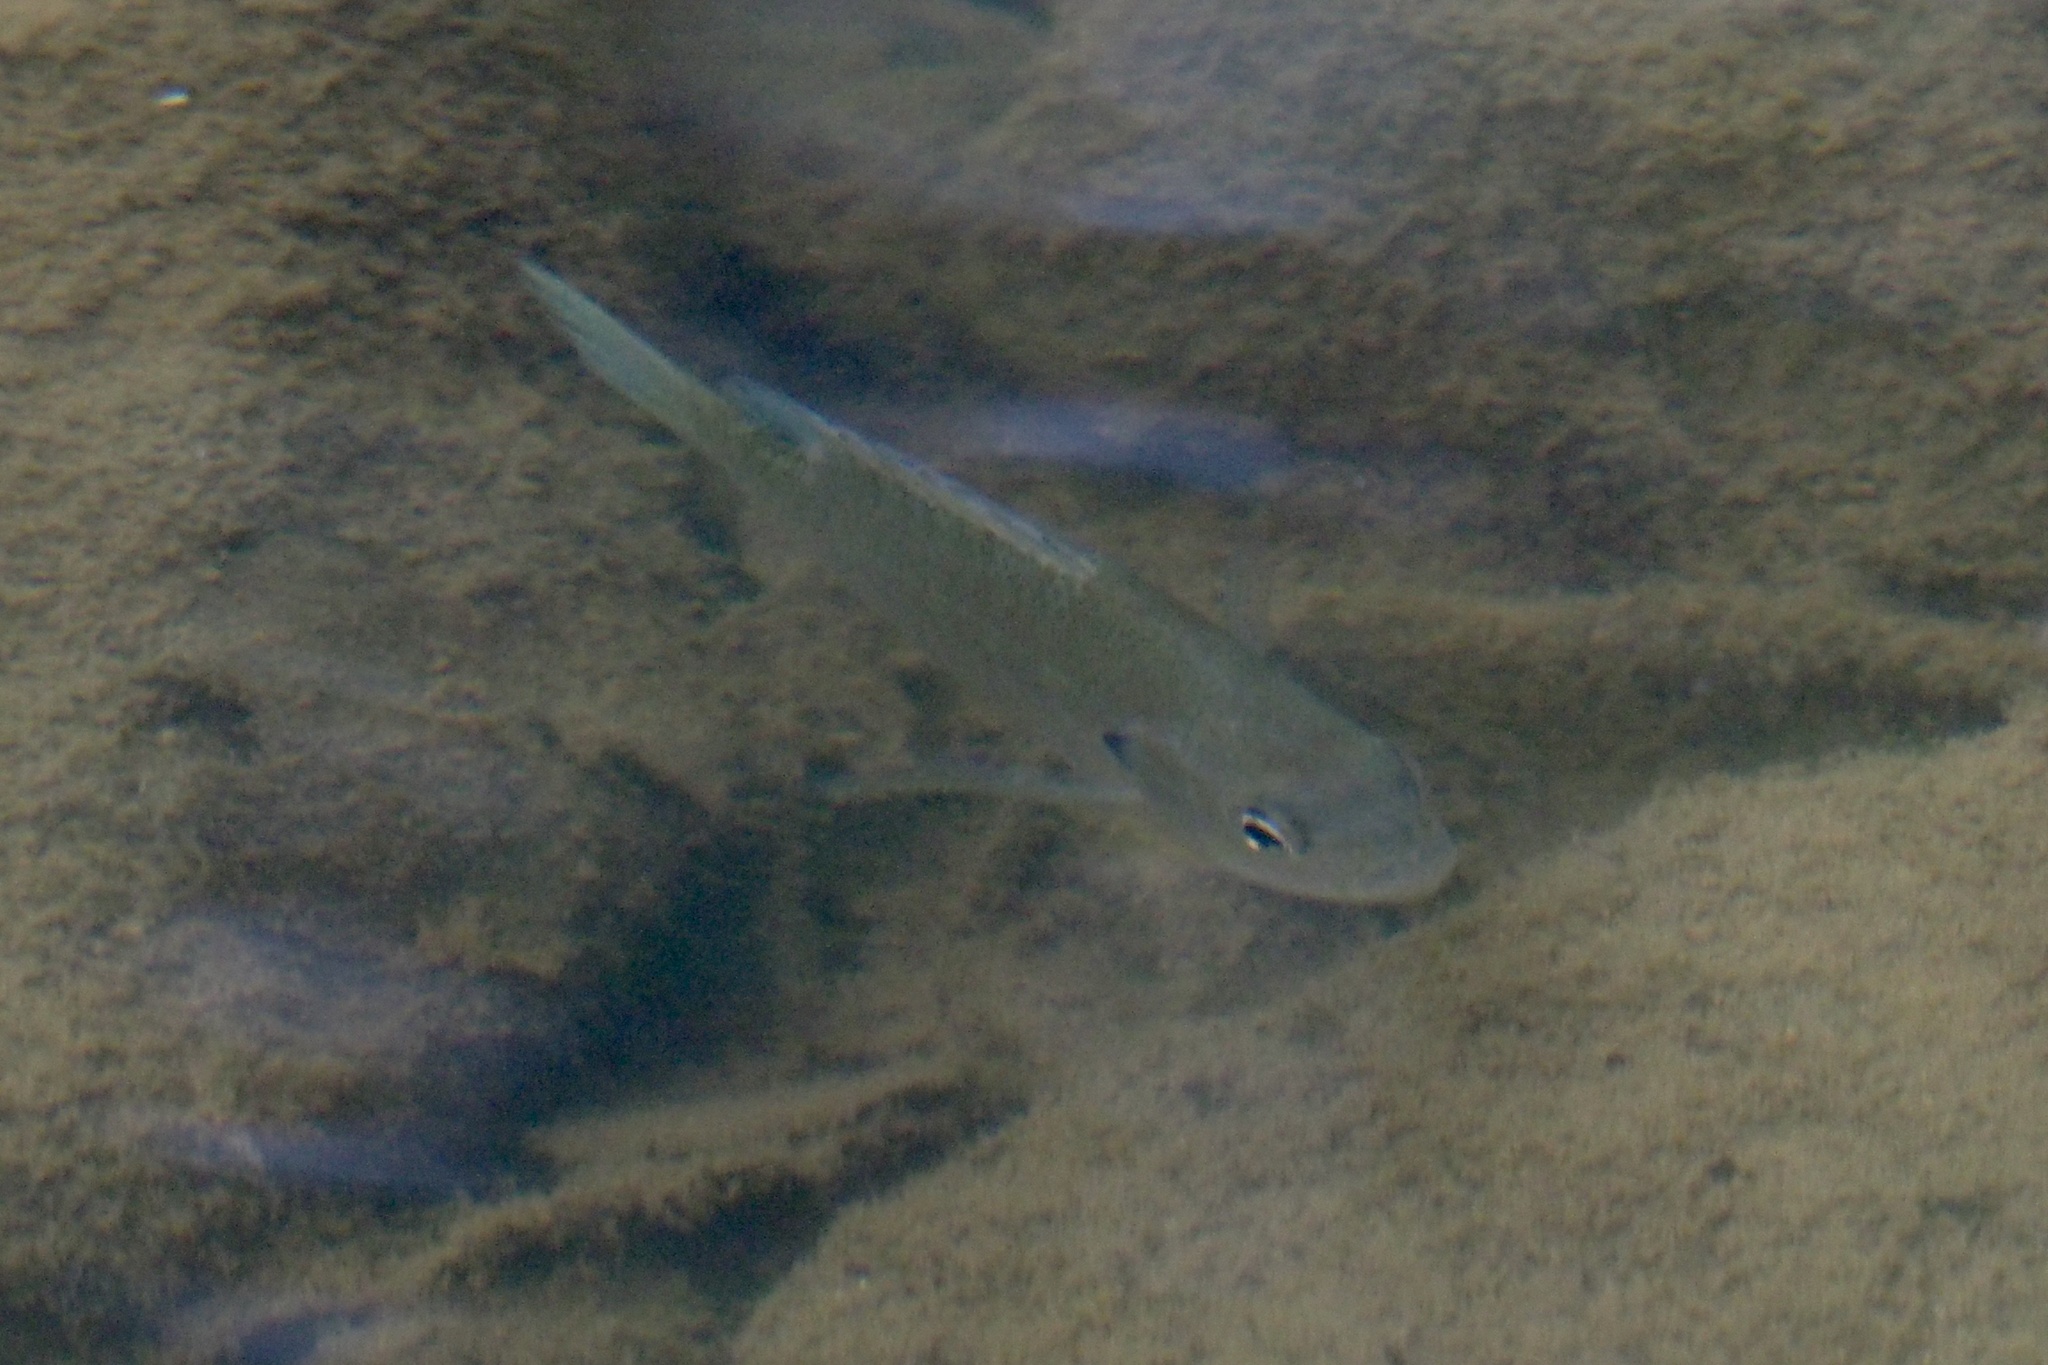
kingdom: Animalia
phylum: Chordata
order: Perciformes
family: Centrarchidae
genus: Lepomis
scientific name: Lepomis macrochirus
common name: Bluegill
